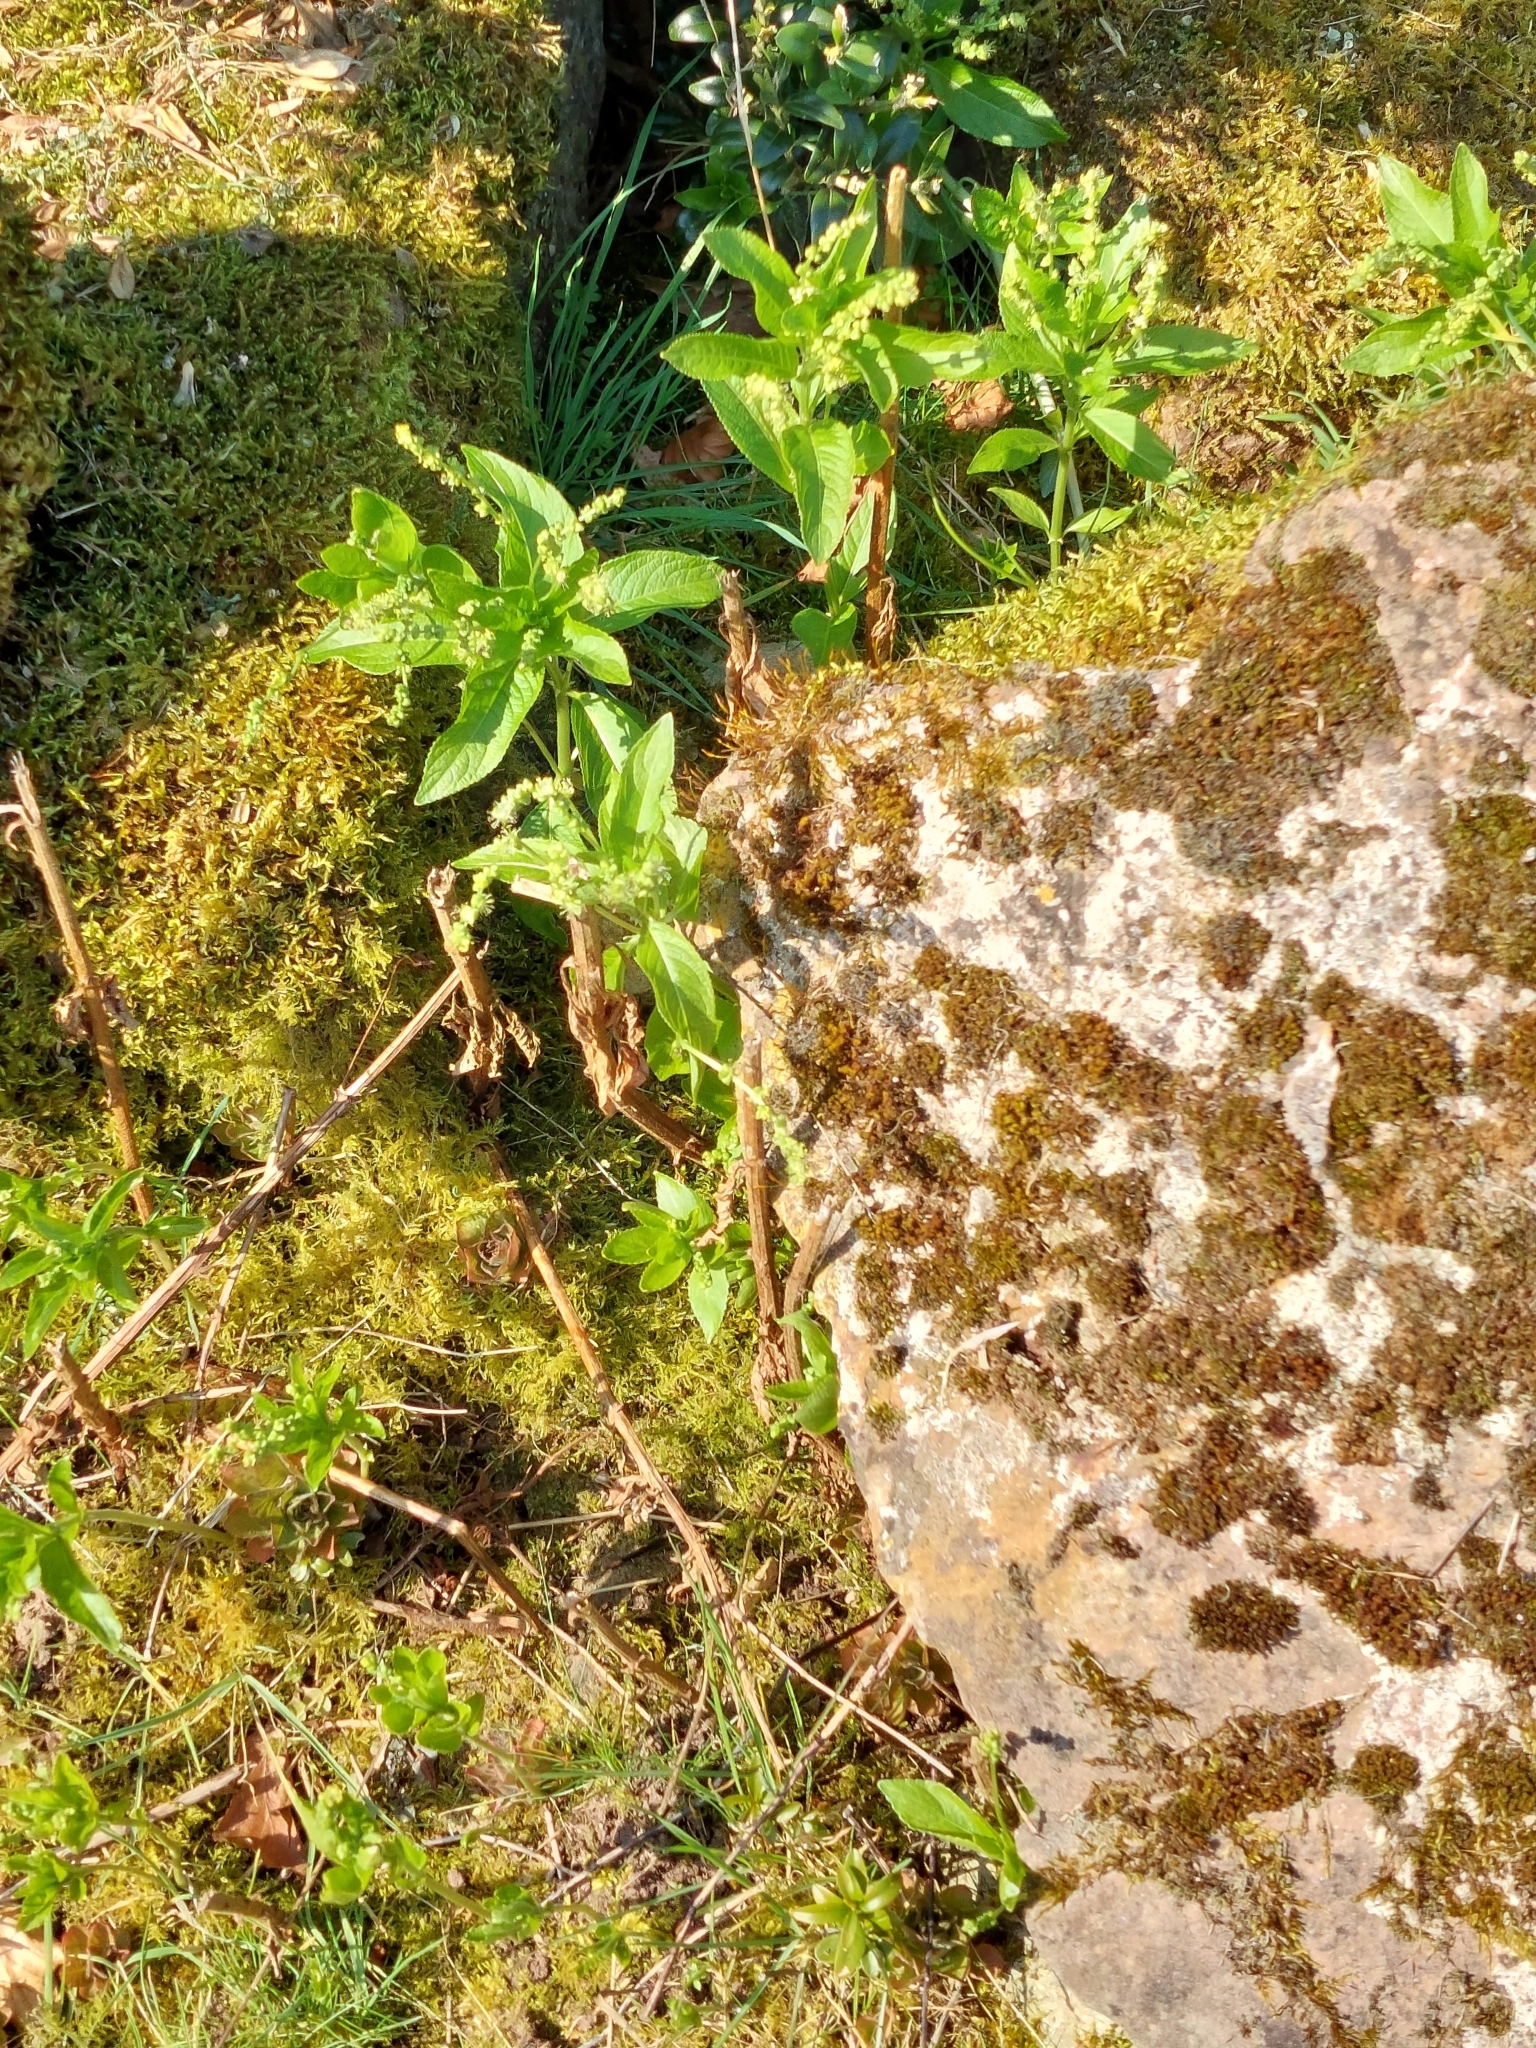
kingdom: Plantae
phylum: Tracheophyta
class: Magnoliopsida
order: Malpighiales
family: Euphorbiaceae
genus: Mercurialis
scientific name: Mercurialis perennis
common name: Dog mercury
